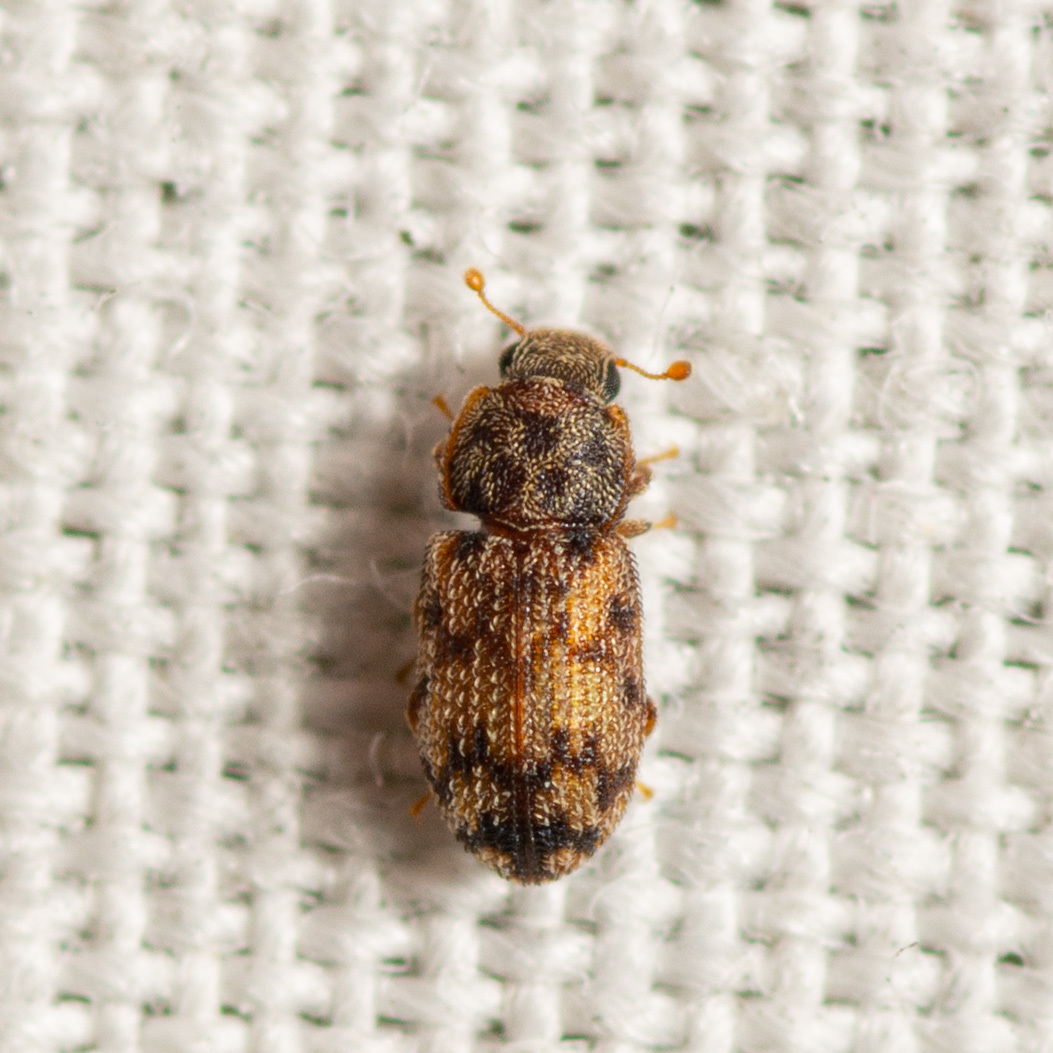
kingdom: Animalia
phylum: Arthropoda
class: Insecta
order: Coleoptera
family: Zopheridae
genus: Synchita
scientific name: Synchita
